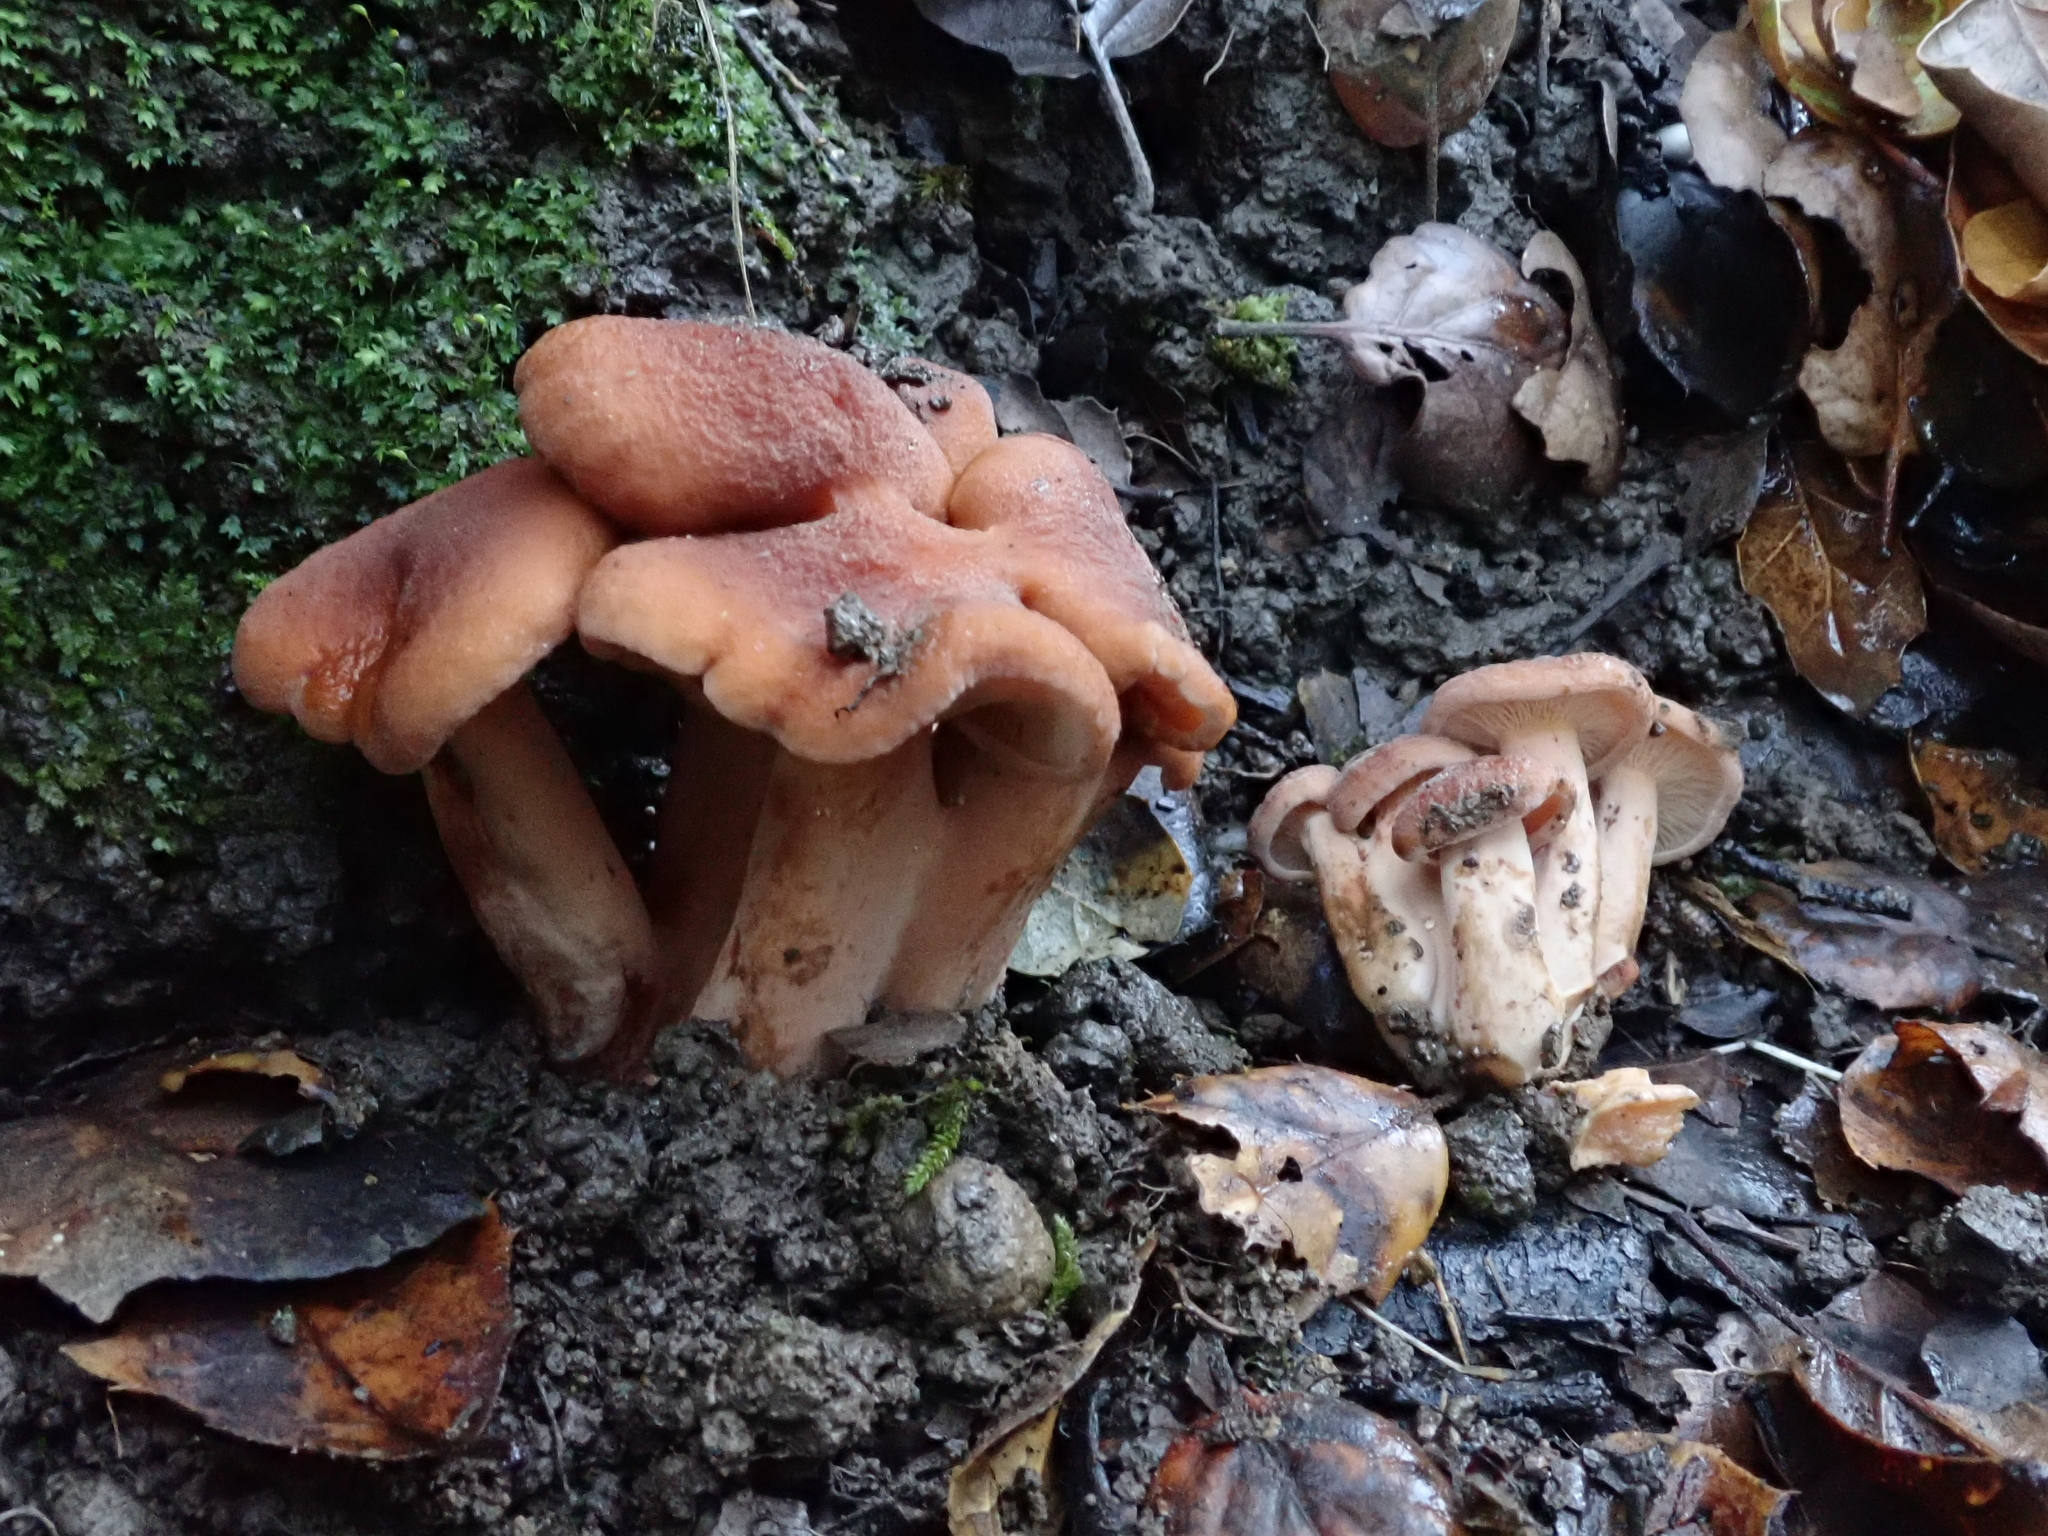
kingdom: Fungi
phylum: Basidiomycota
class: Agaricomycetes
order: Russulales
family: Russulaceae
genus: Lactarius
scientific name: Lactarius rubidus
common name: Candy cap
